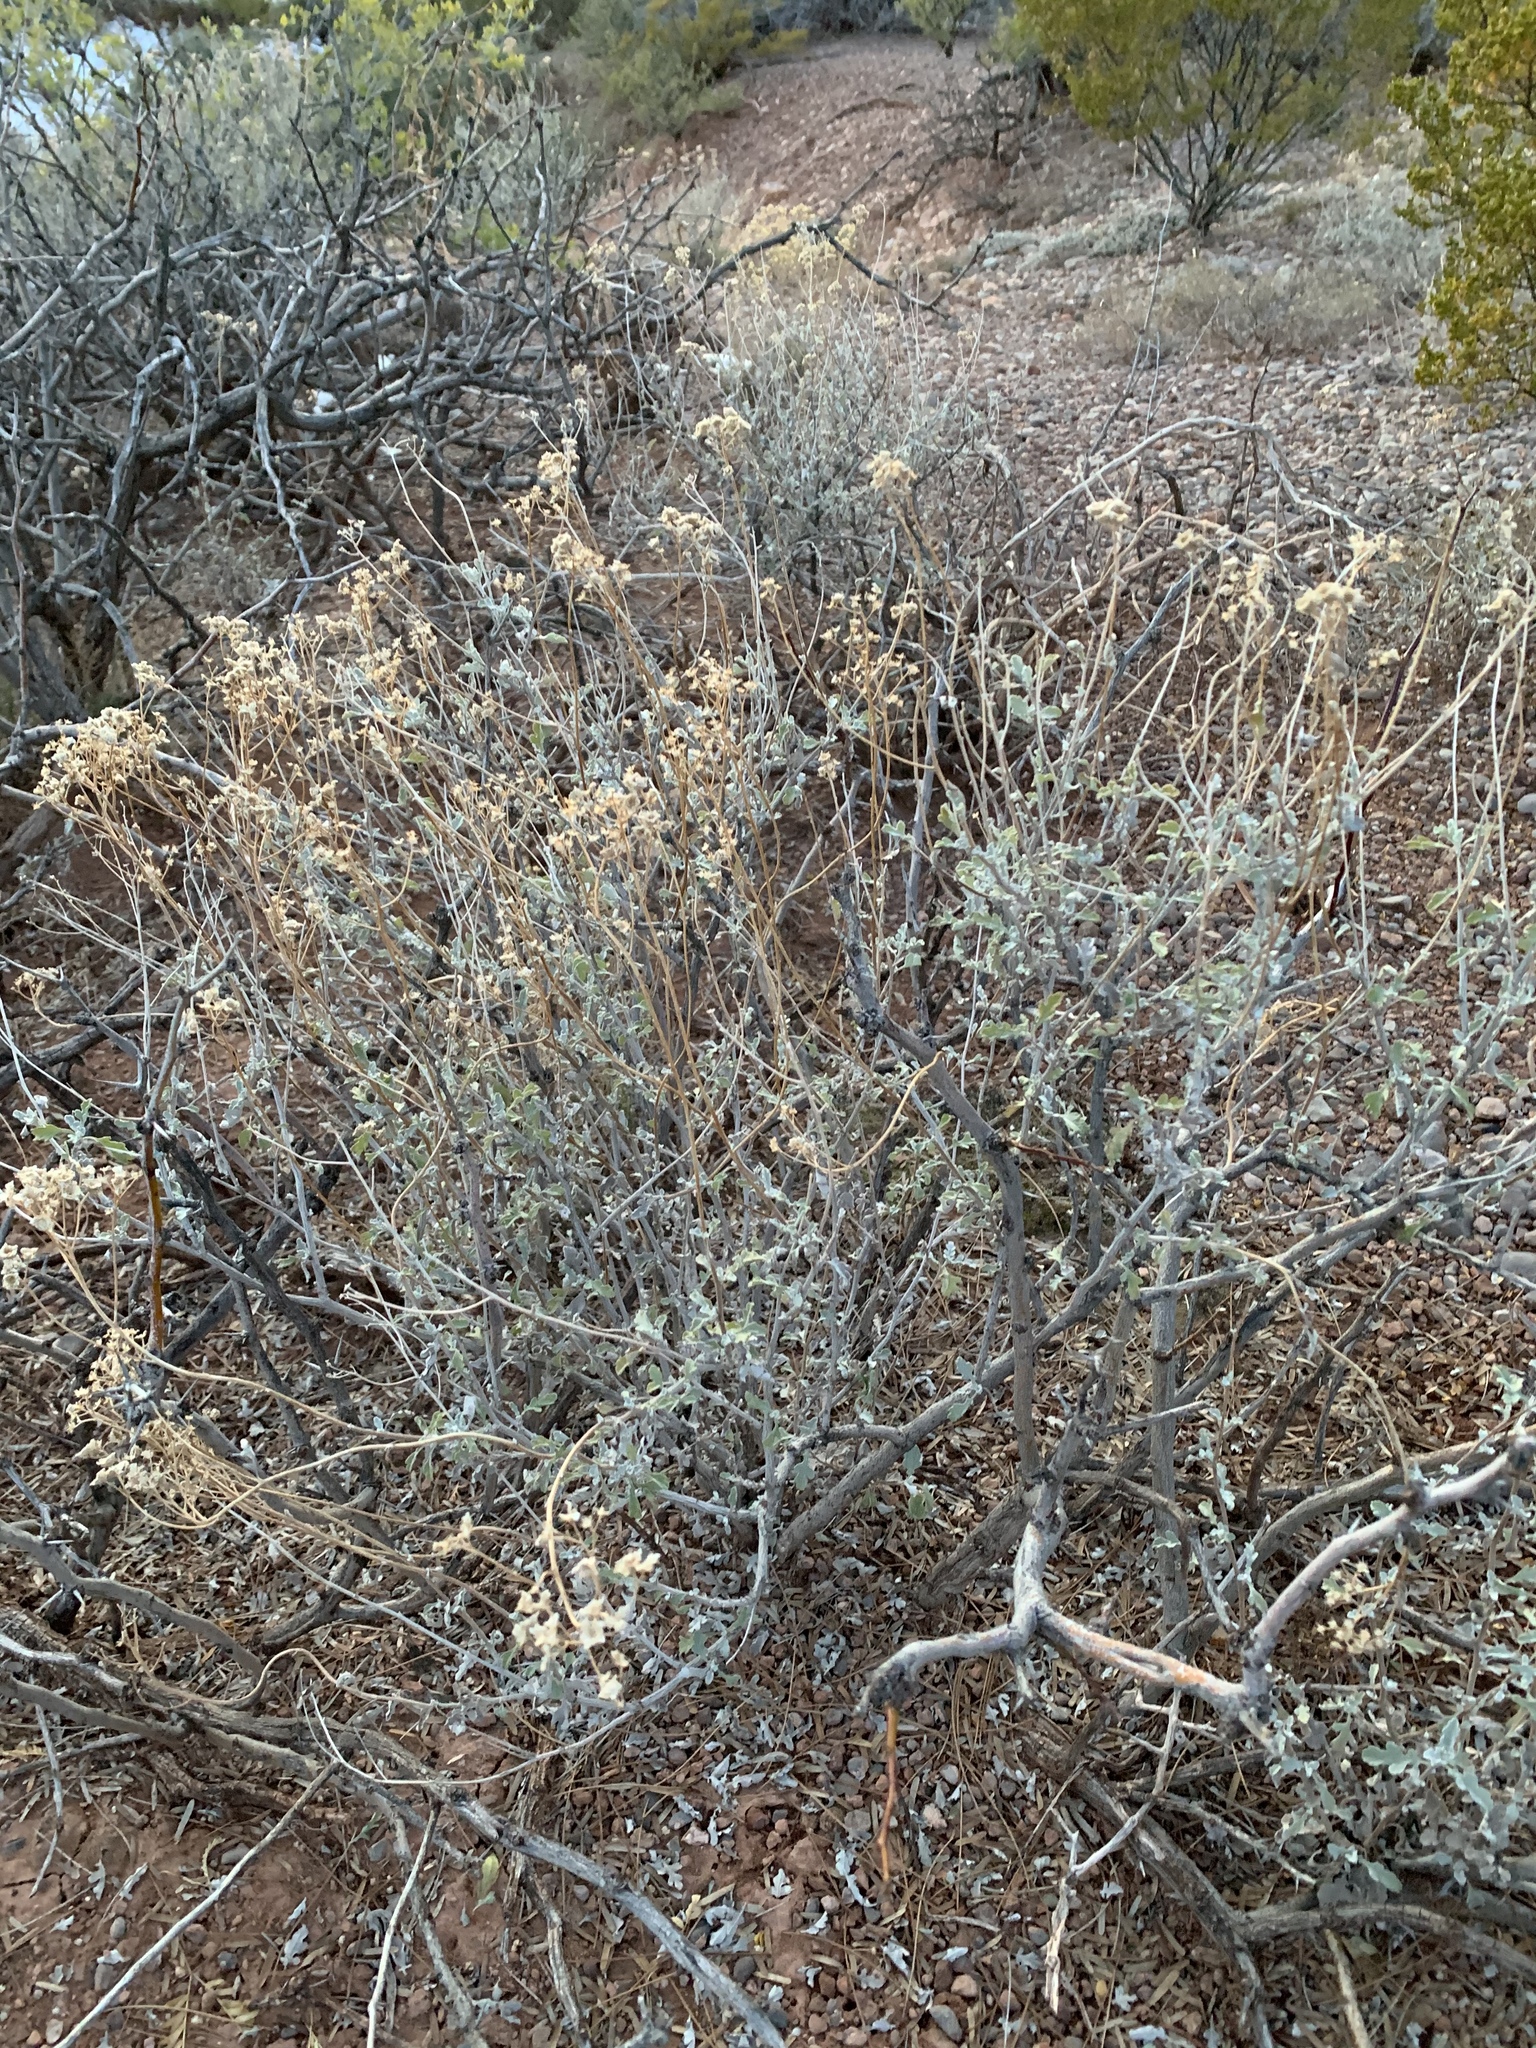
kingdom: Plantae
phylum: Tracheophyta
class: Magnoliopsida
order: Asterales
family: Asteraceae
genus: Parthenium
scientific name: Parthenium incanum
